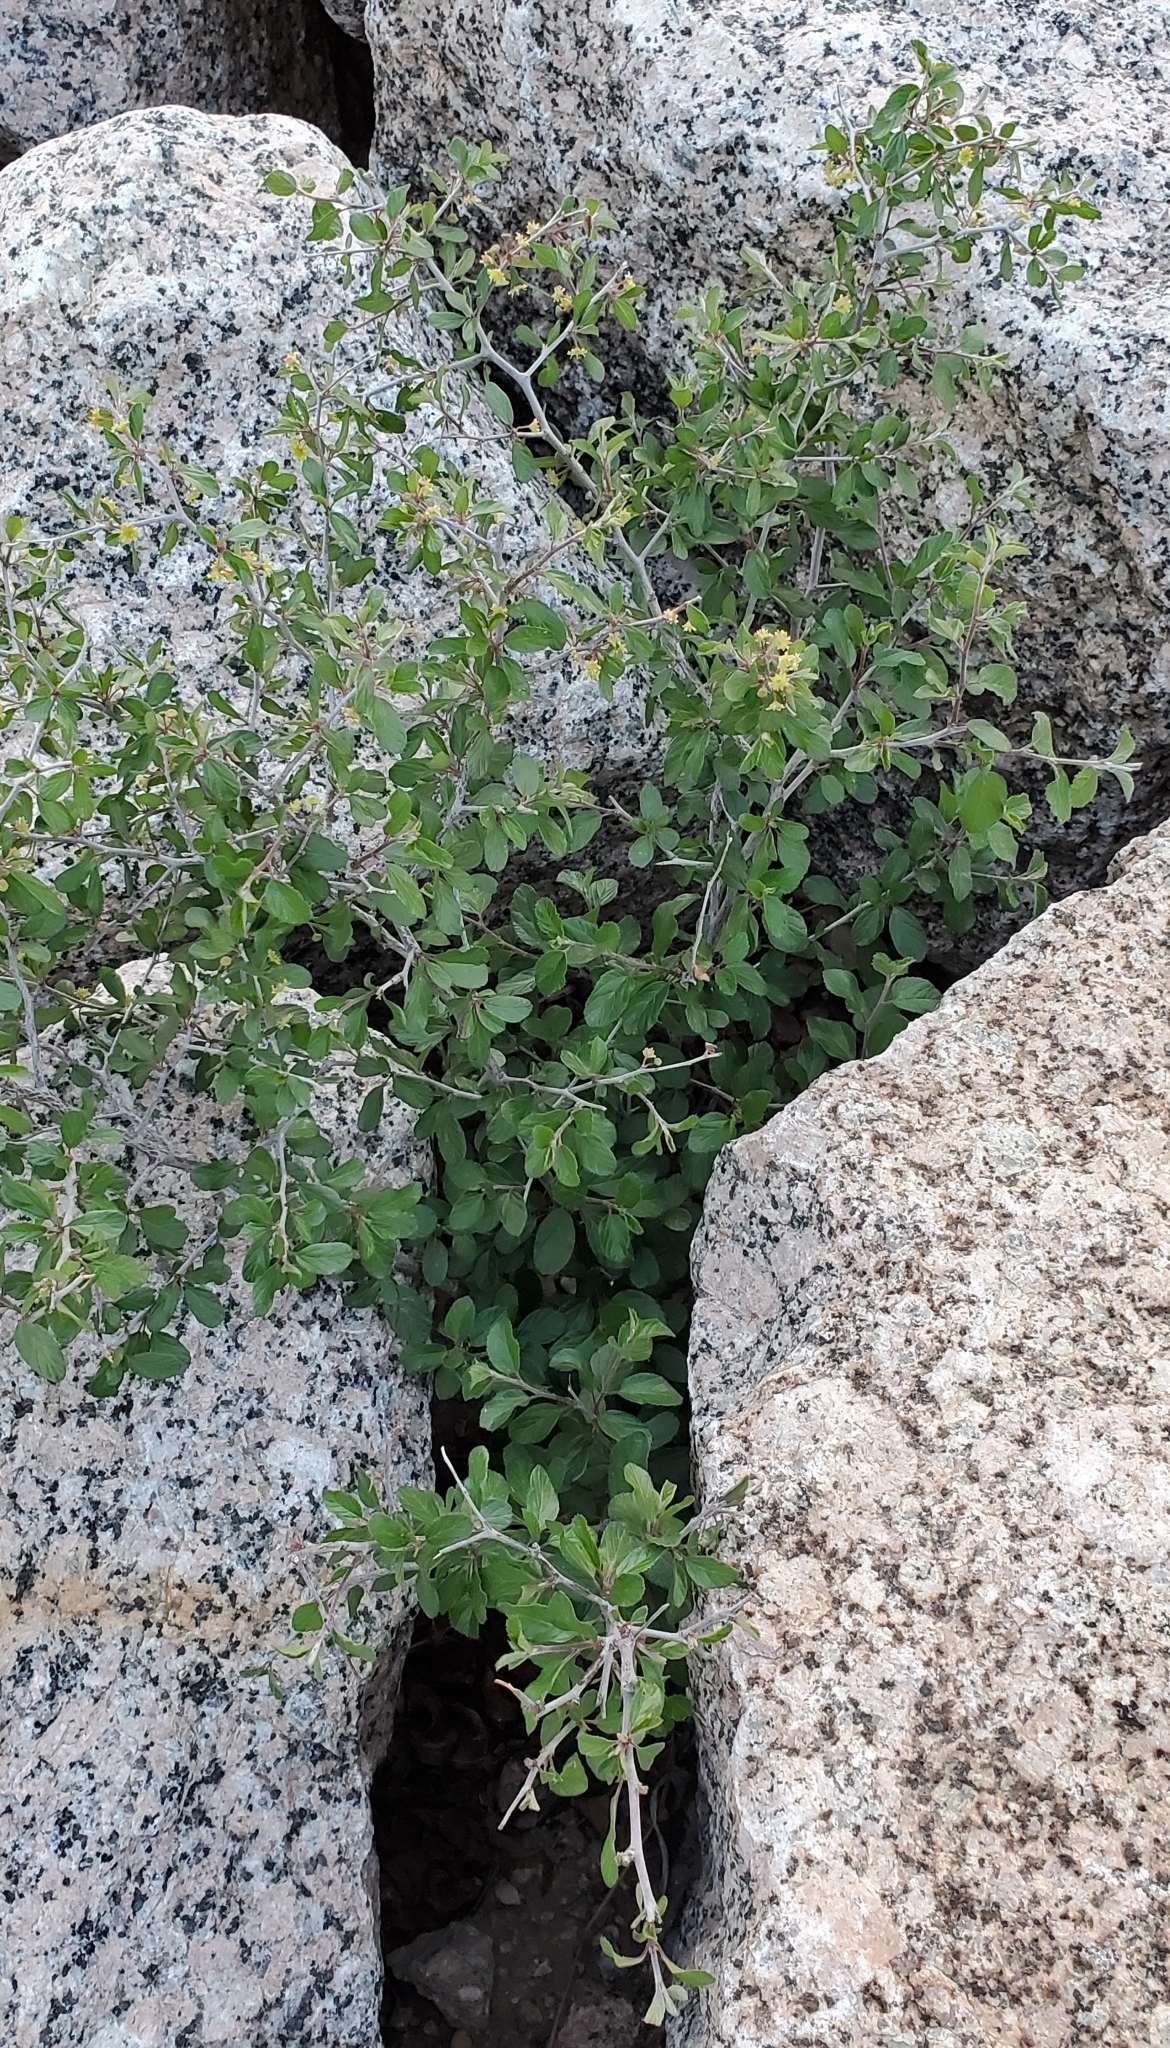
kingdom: Plantae
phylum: Tracheophyta
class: Magnoliopsida
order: Rosales
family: Rhamnaceae
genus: Colubrina
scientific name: Colubrina texensis
